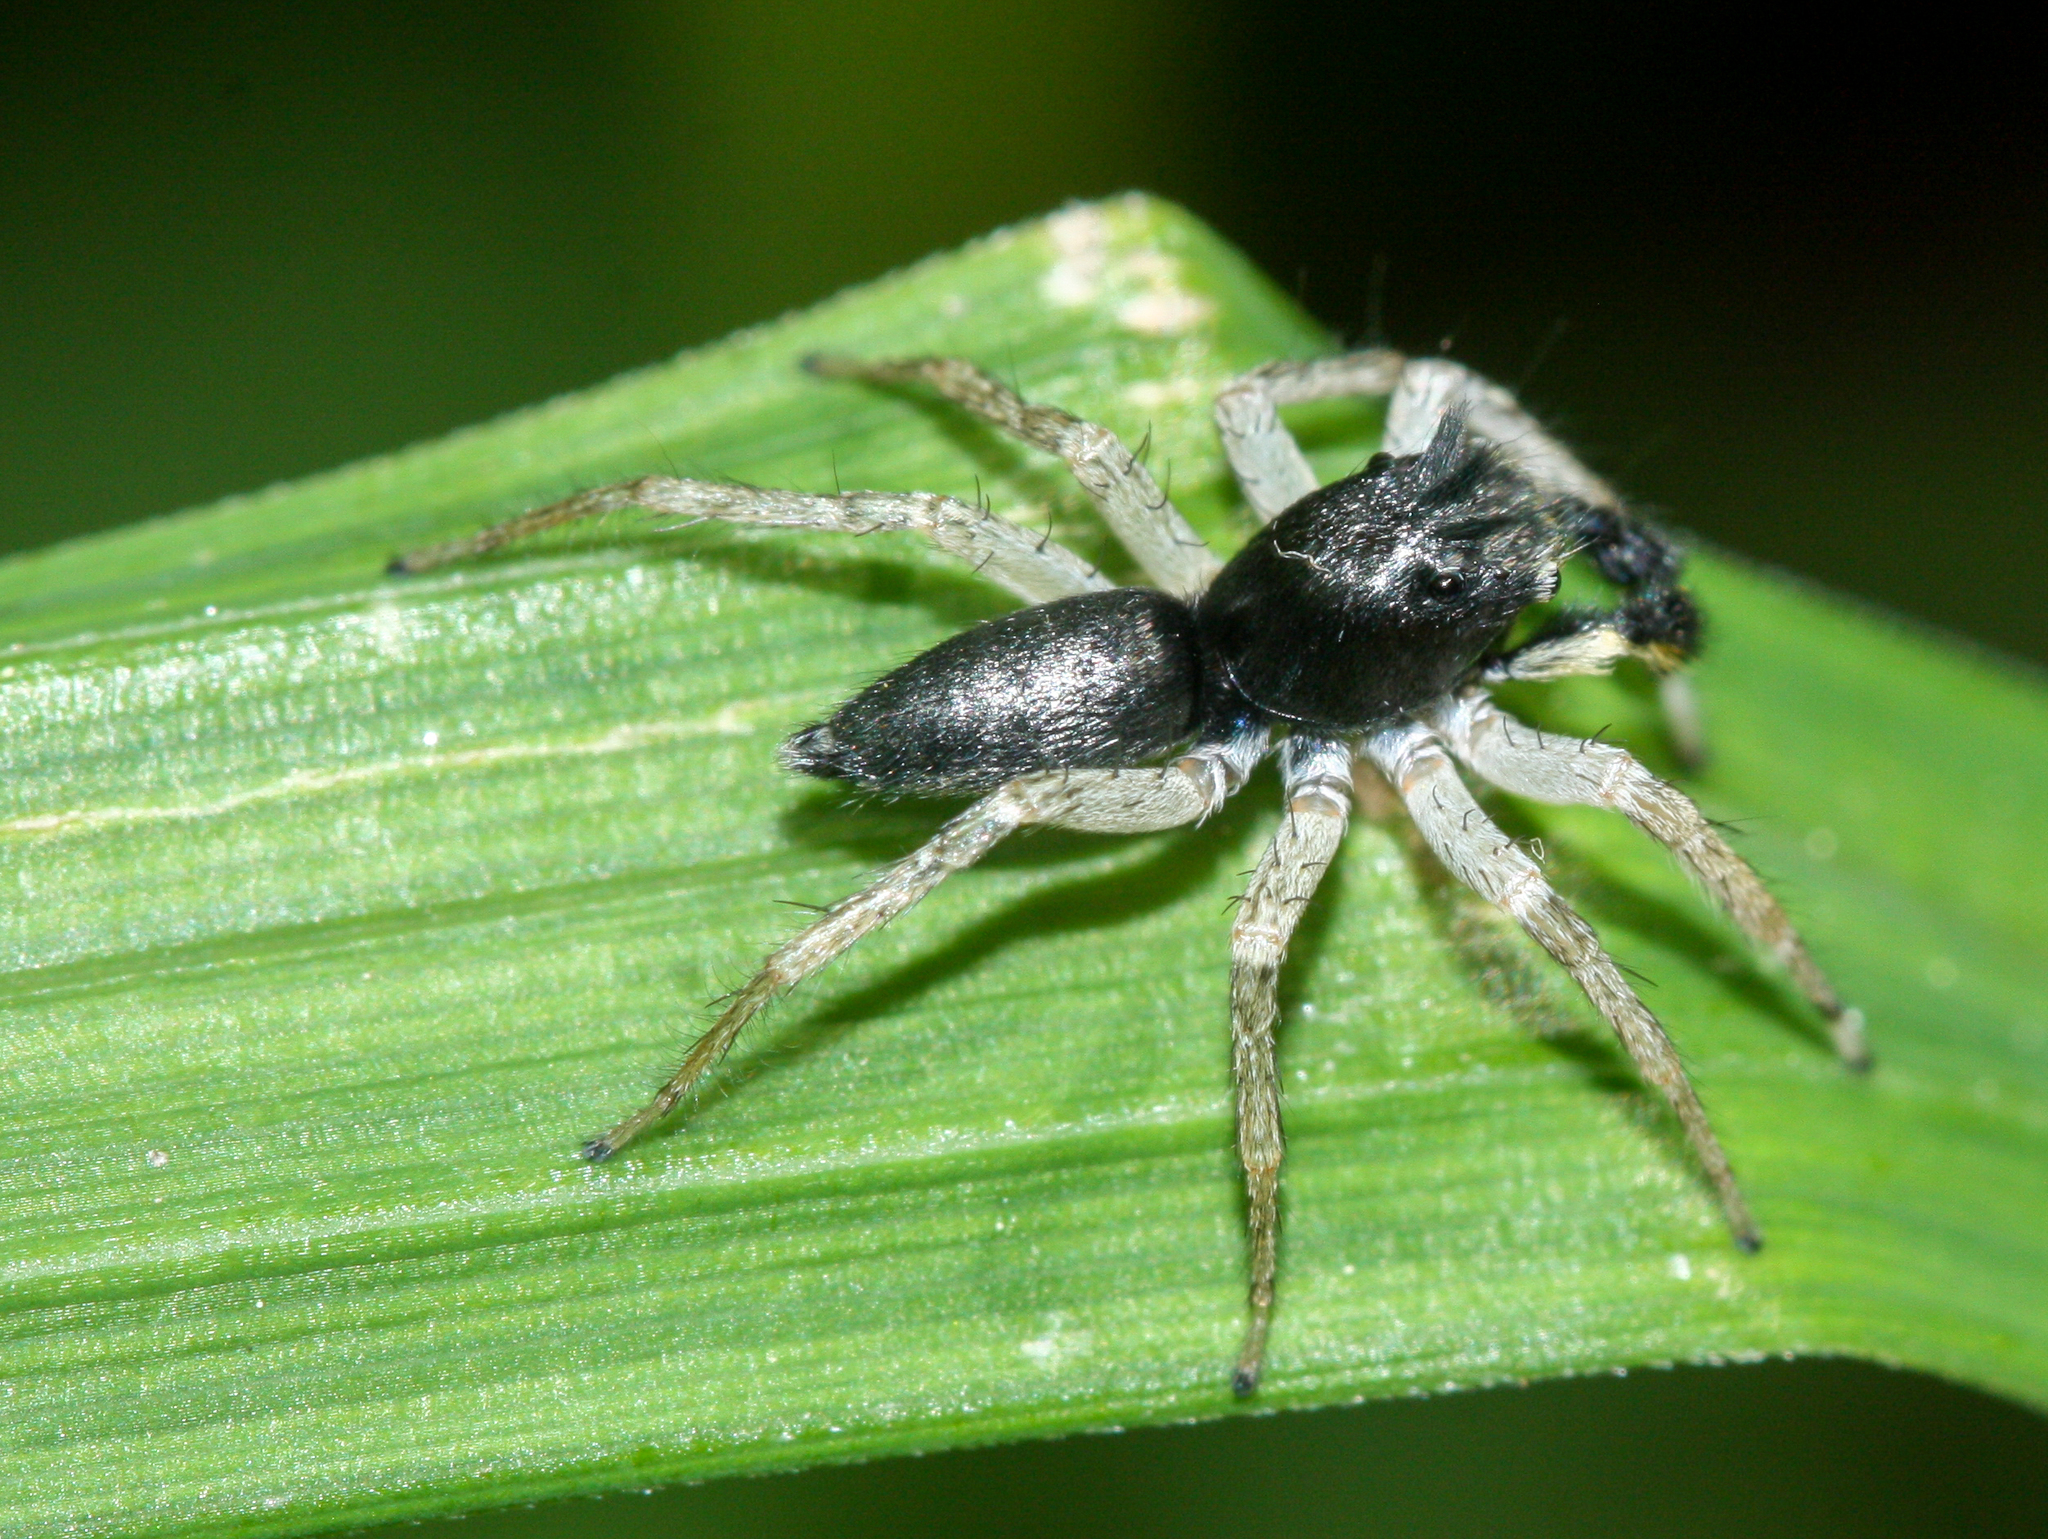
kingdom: Animalia
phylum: Arthropoda
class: Arachnida
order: Araneae
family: Salticidae
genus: Maevia
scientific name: Maevia inclemens
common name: Dimorphic jumper
